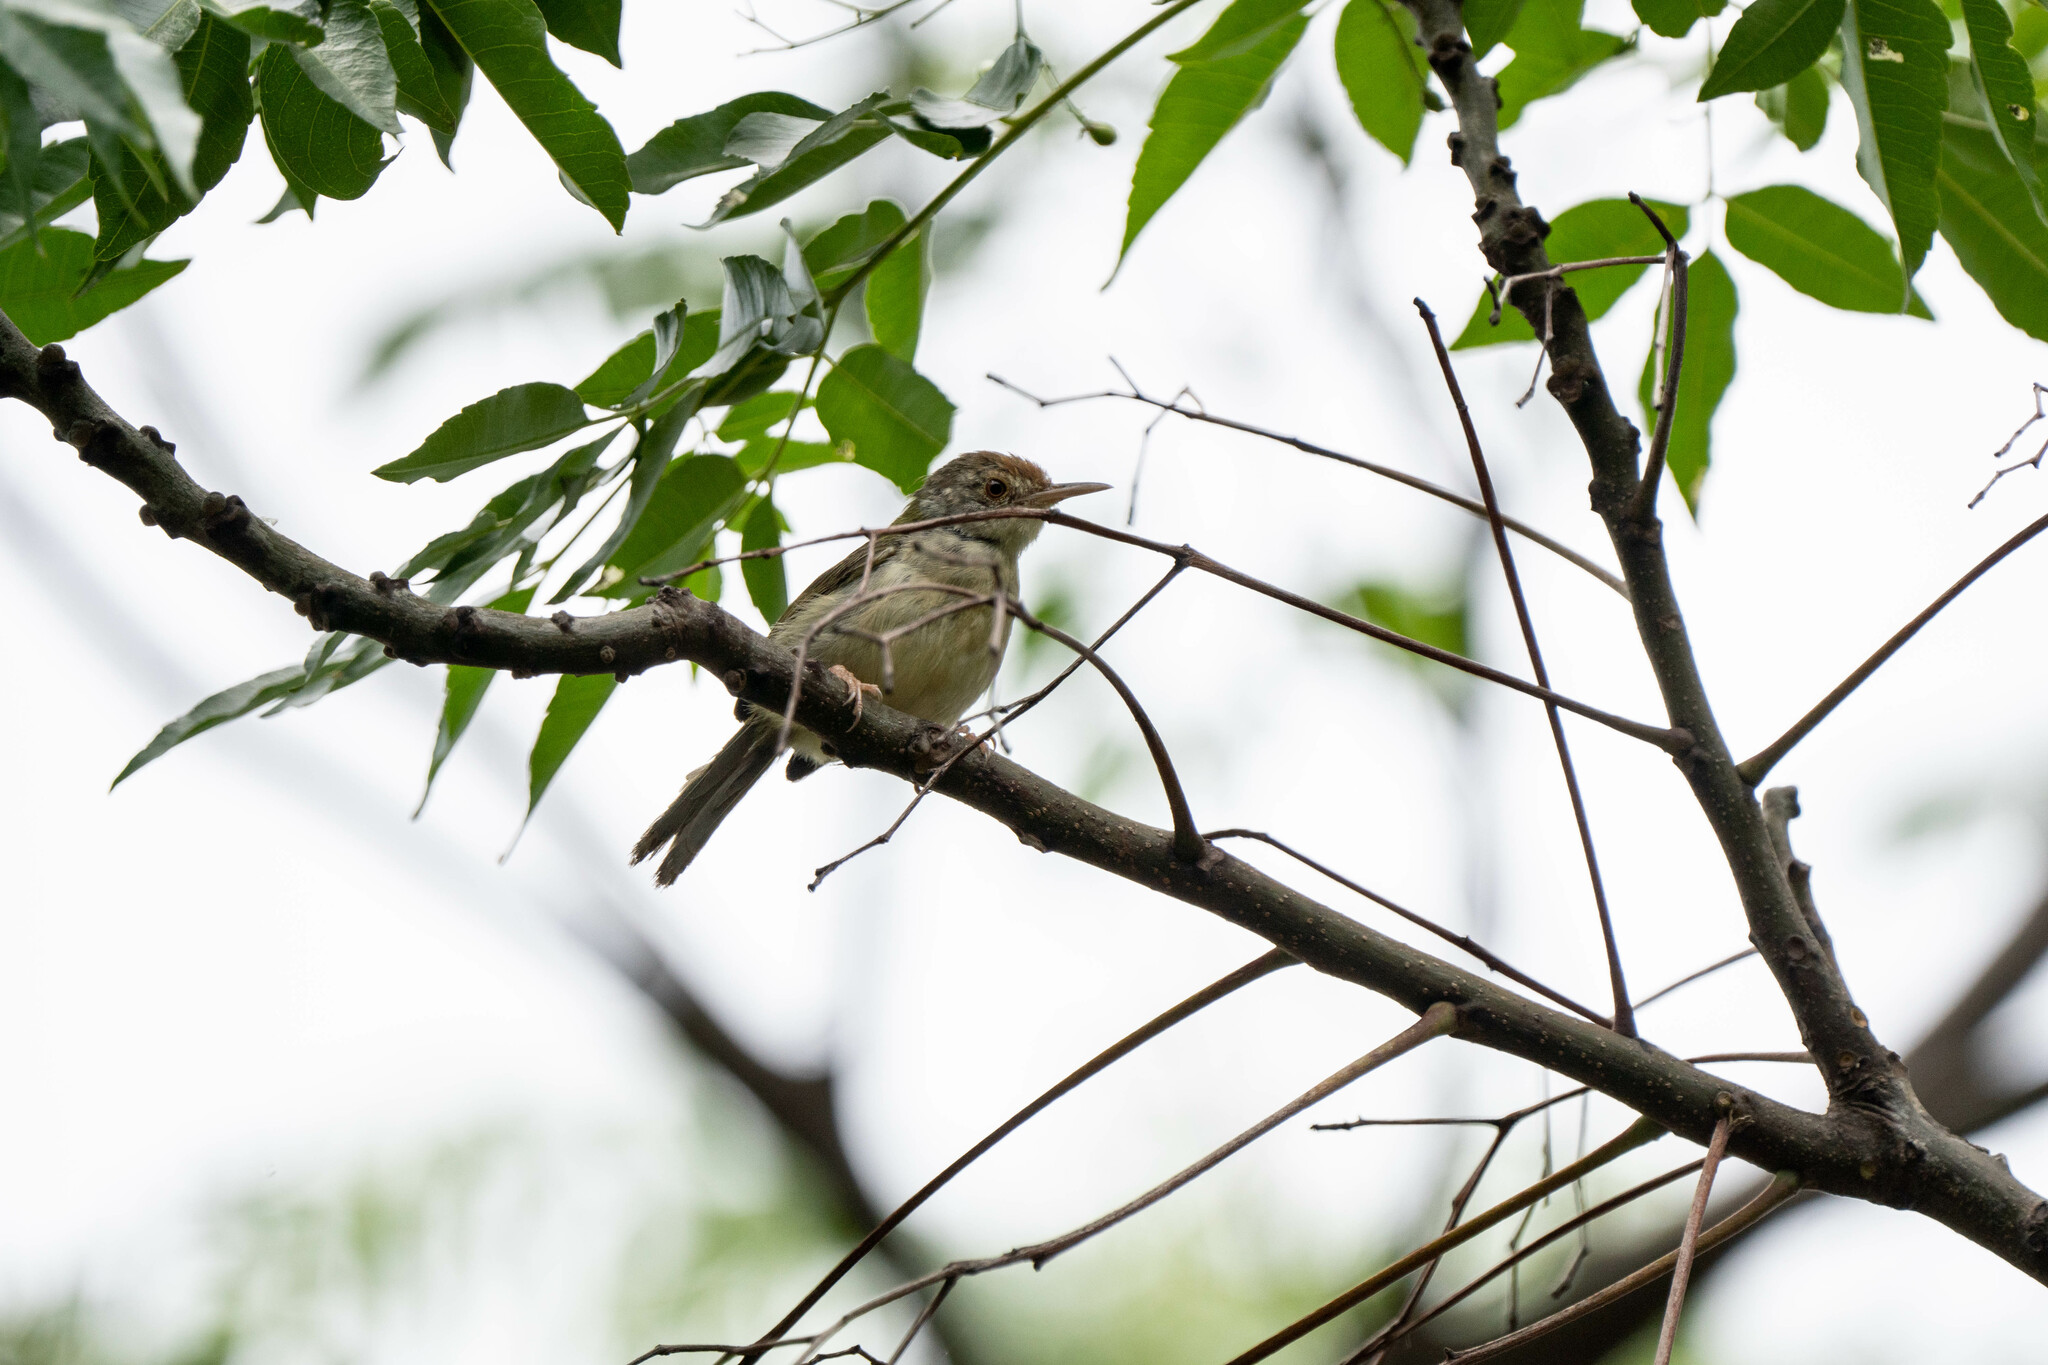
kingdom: Animalia
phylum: Chordata
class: Aves
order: Passeriformes
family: Cisticolidae
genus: Orthotomus
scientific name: Orthotomus sutorius
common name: Common tailorbird
